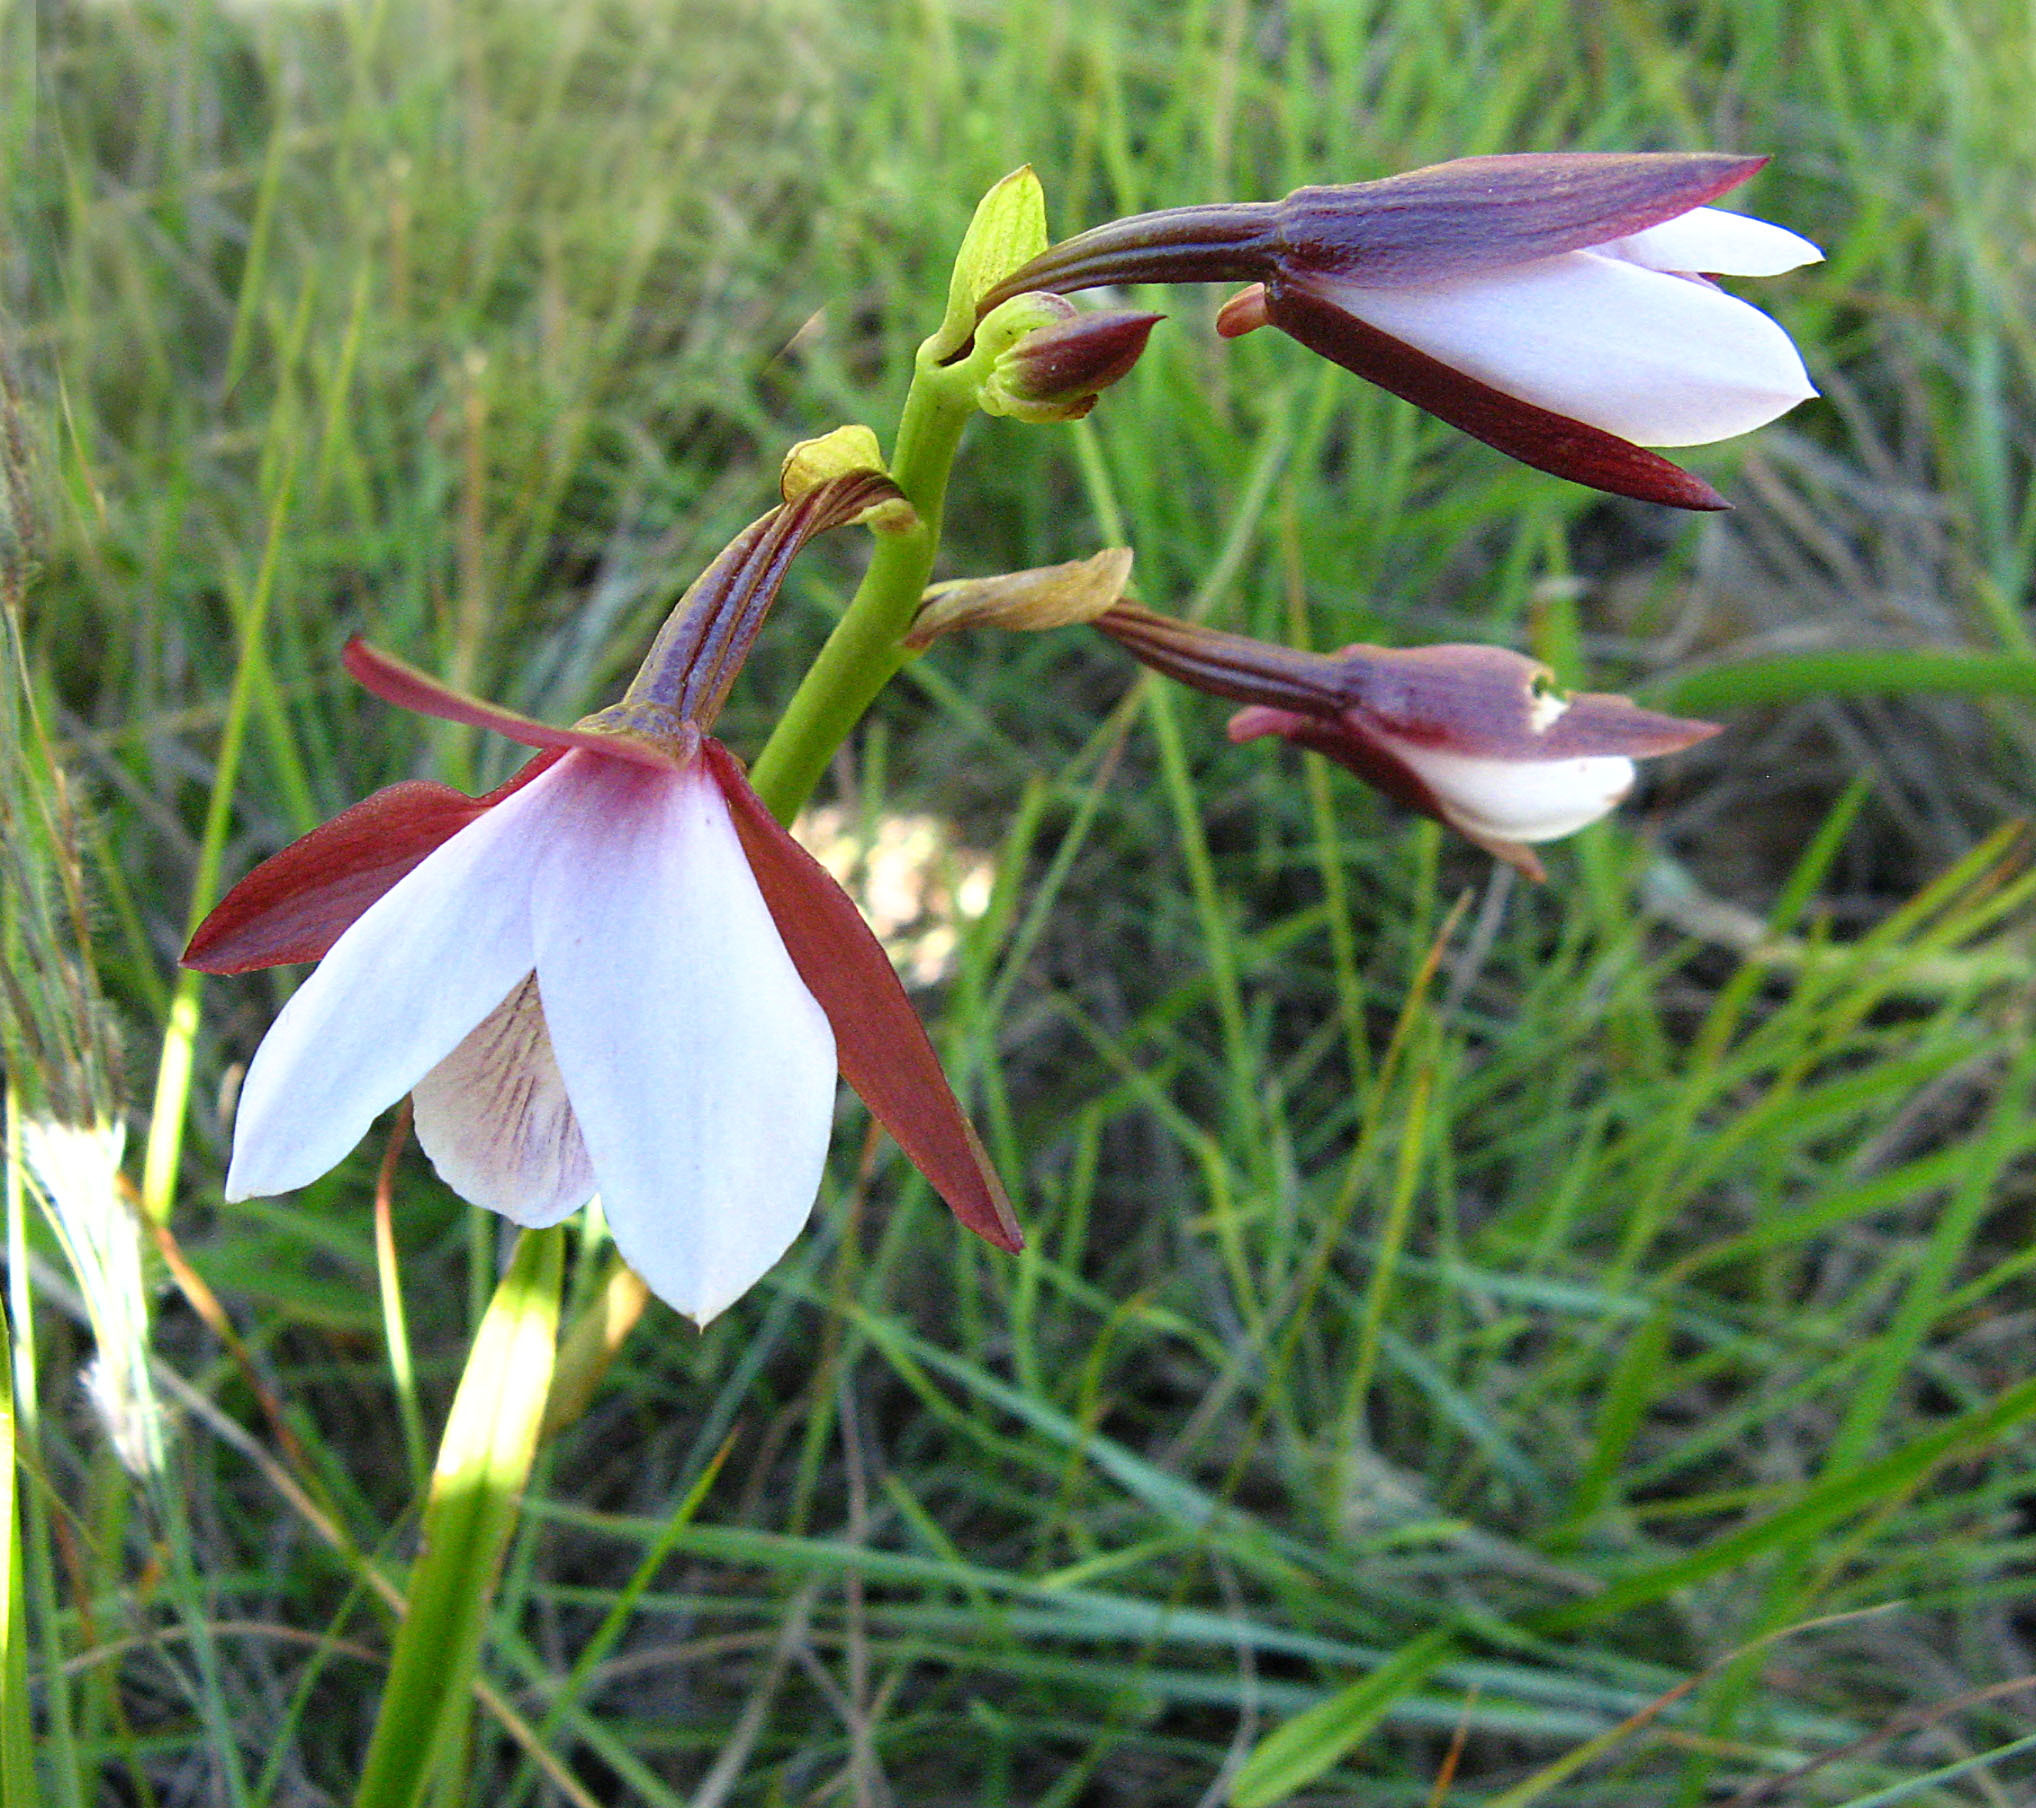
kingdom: Plantae
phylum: Tracheophyta
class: Liliopsida
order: Asparagales
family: Orchidaceae
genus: Eulophia
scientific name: Eulophia ovalis
